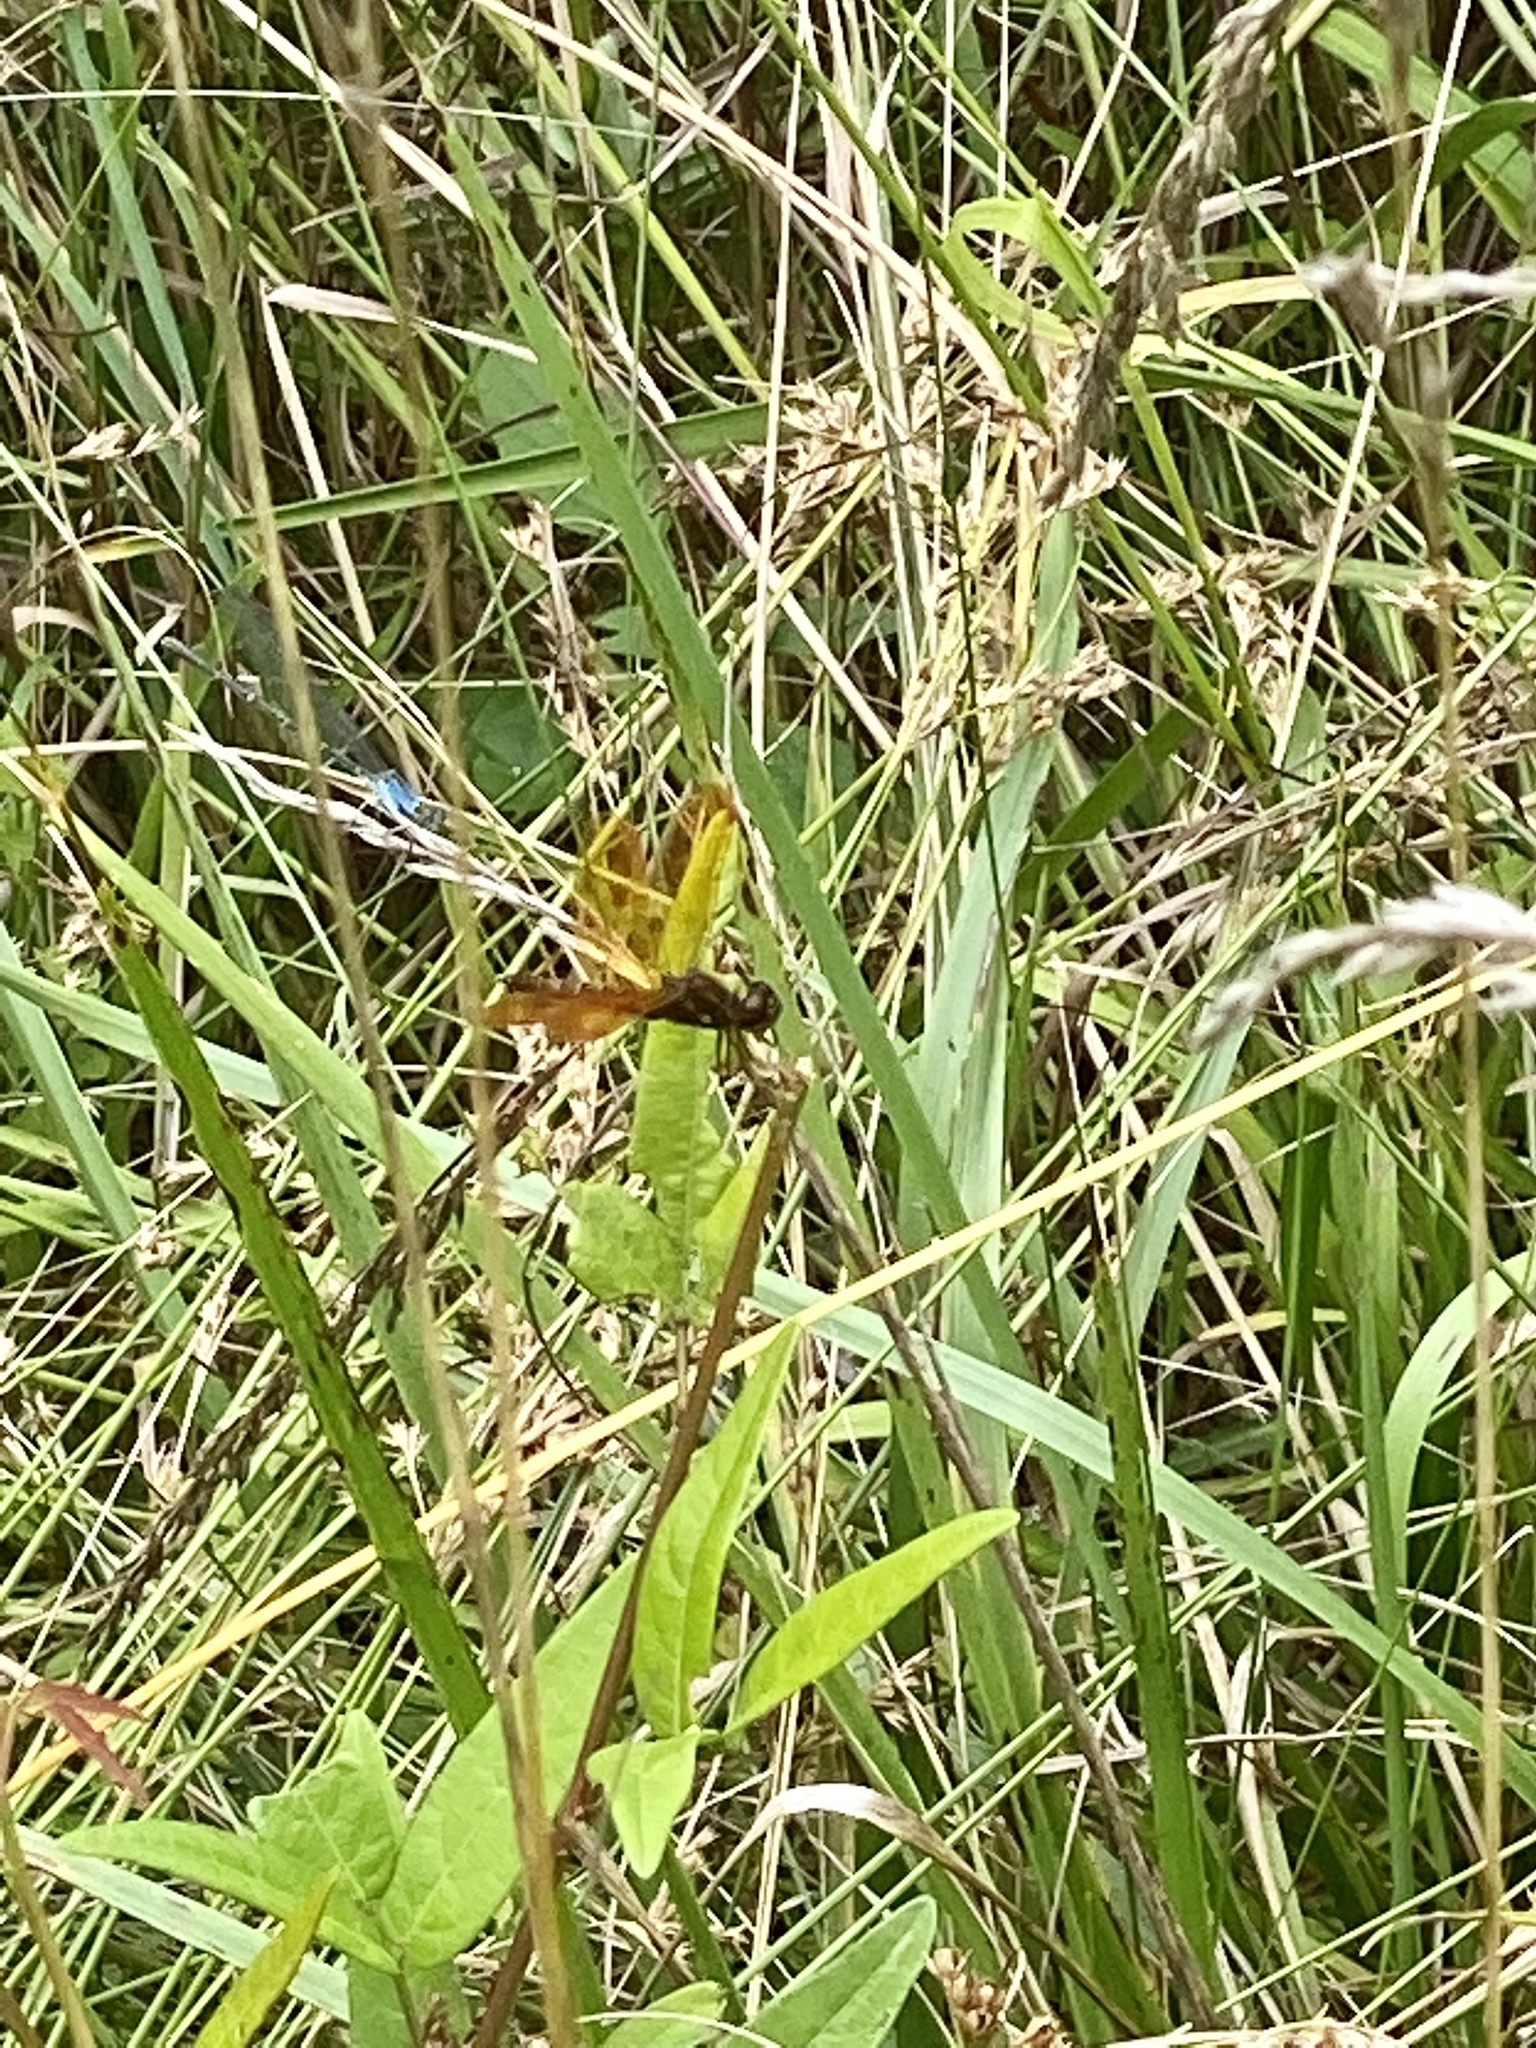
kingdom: Animalia
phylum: Arthropoda
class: Insecta
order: Odonata
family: Libellulidae
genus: Perithemis
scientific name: Perithemis tenera
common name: Eastern amberwing
